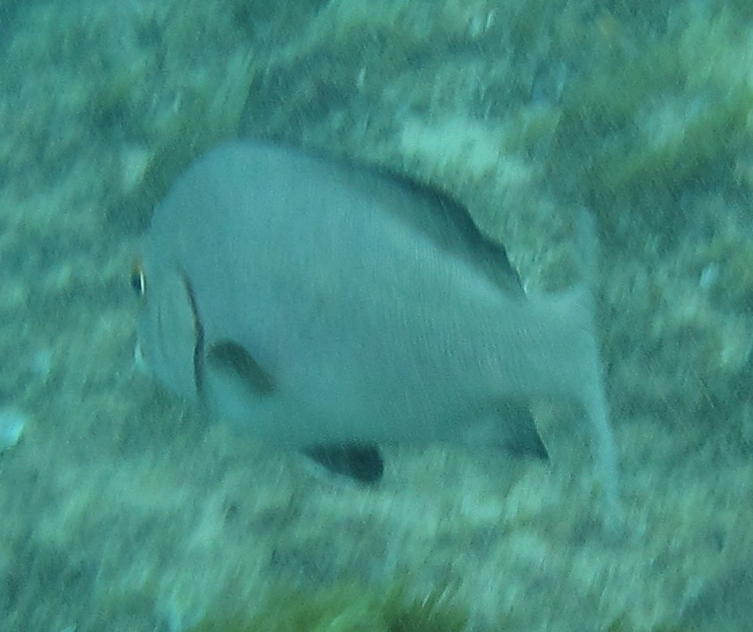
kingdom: Animalia
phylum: Chordata
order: Perciformes
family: Haemulidae
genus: Plectorhinchus
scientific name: Plectorhinchus schotaf
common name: Minstrel sweetlips
